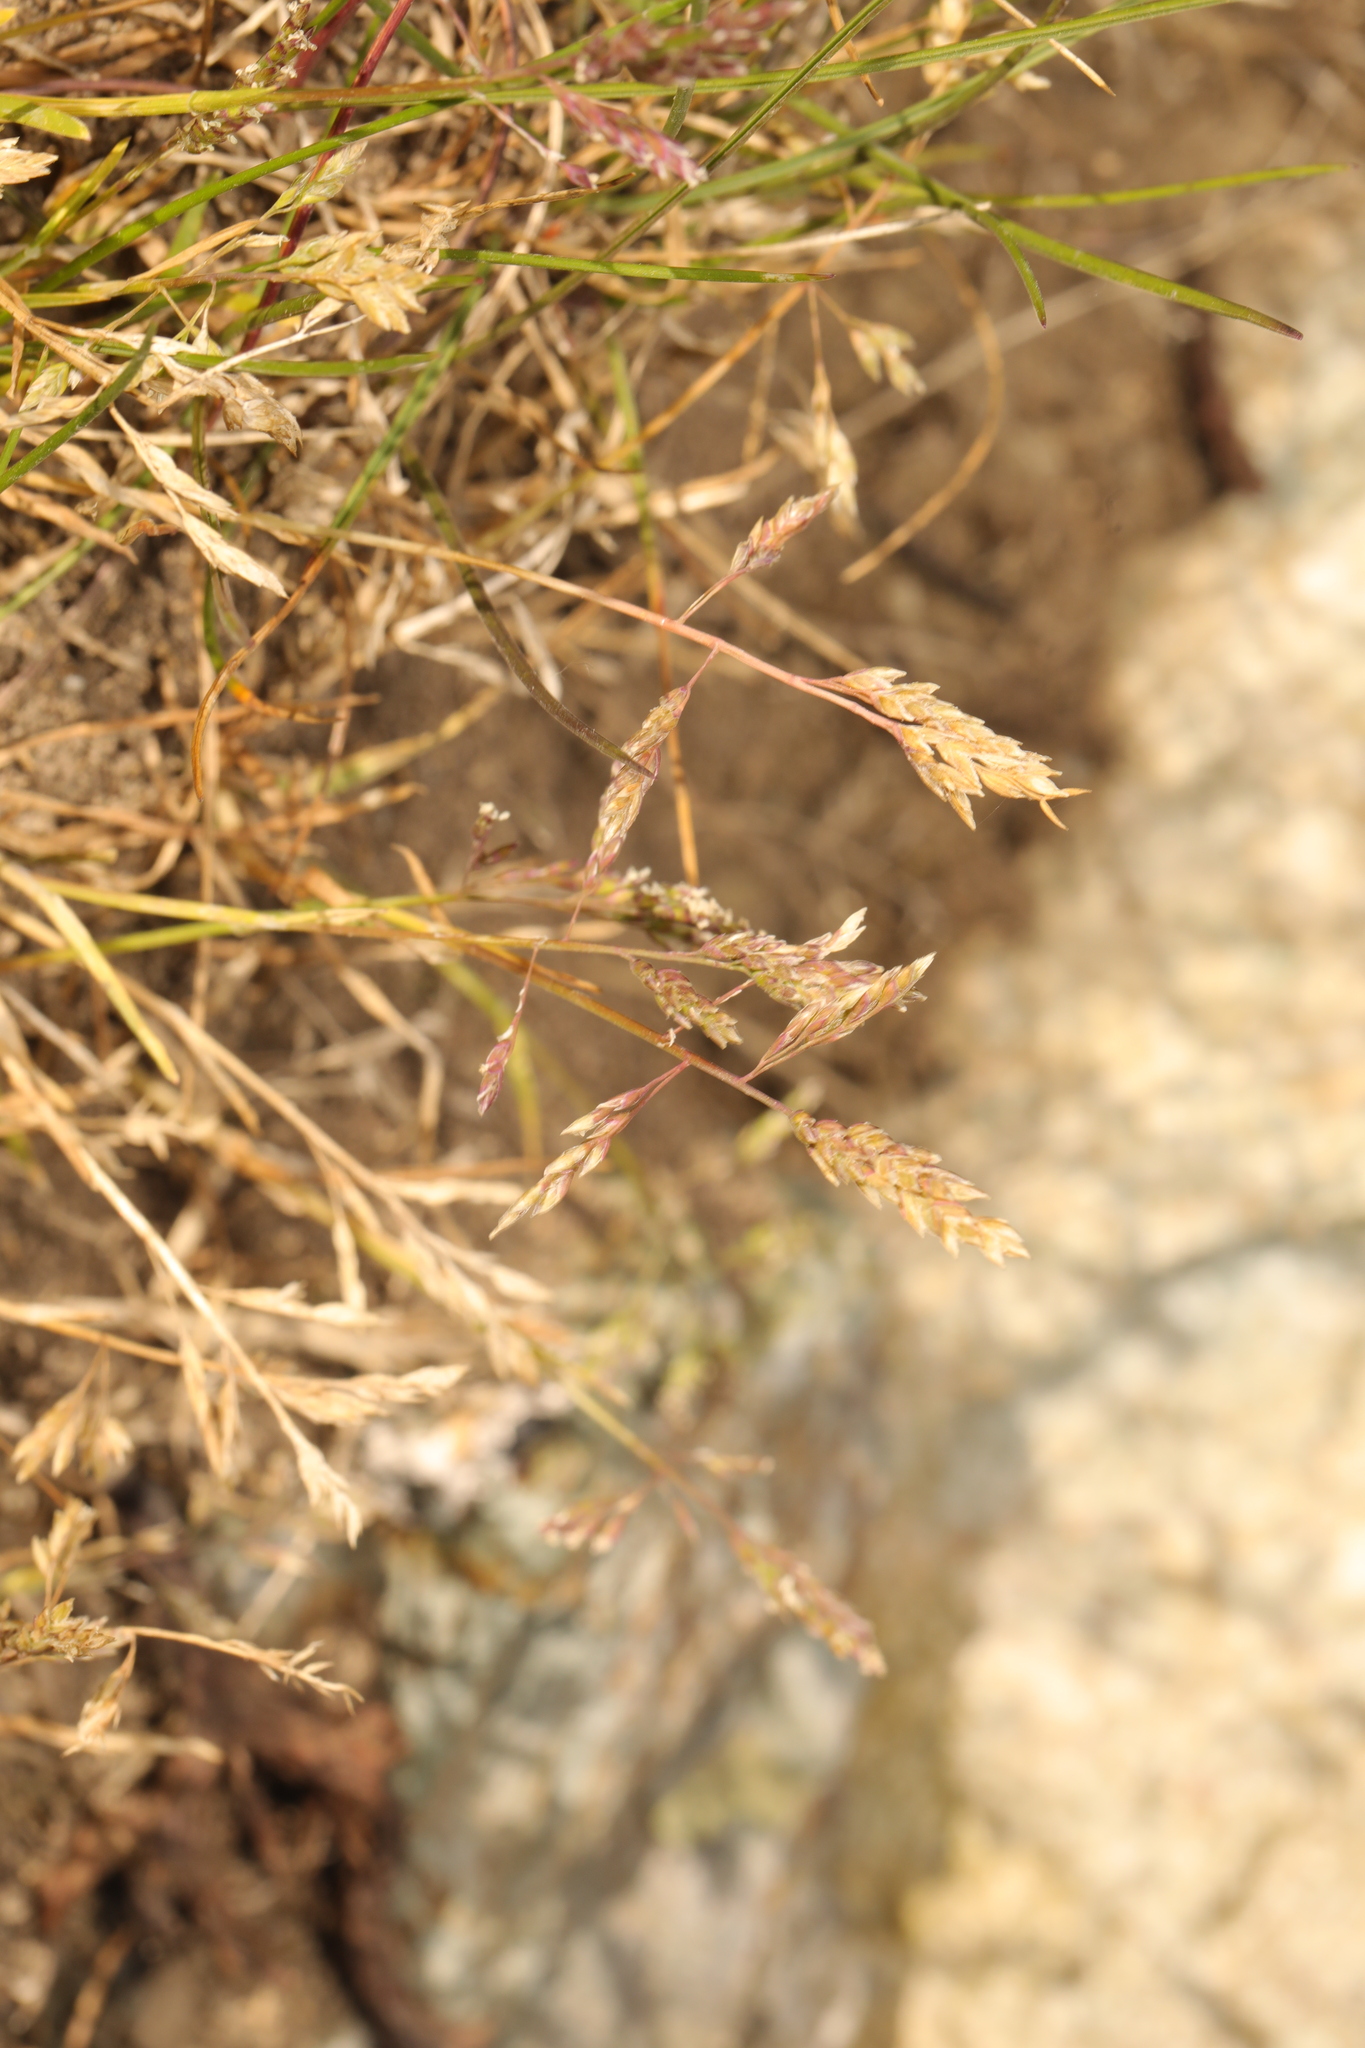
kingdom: Plantae
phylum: Tracheophyta
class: Liliopsida
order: Poales
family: Poaceae
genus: Puccinellia
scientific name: Puccinellia
